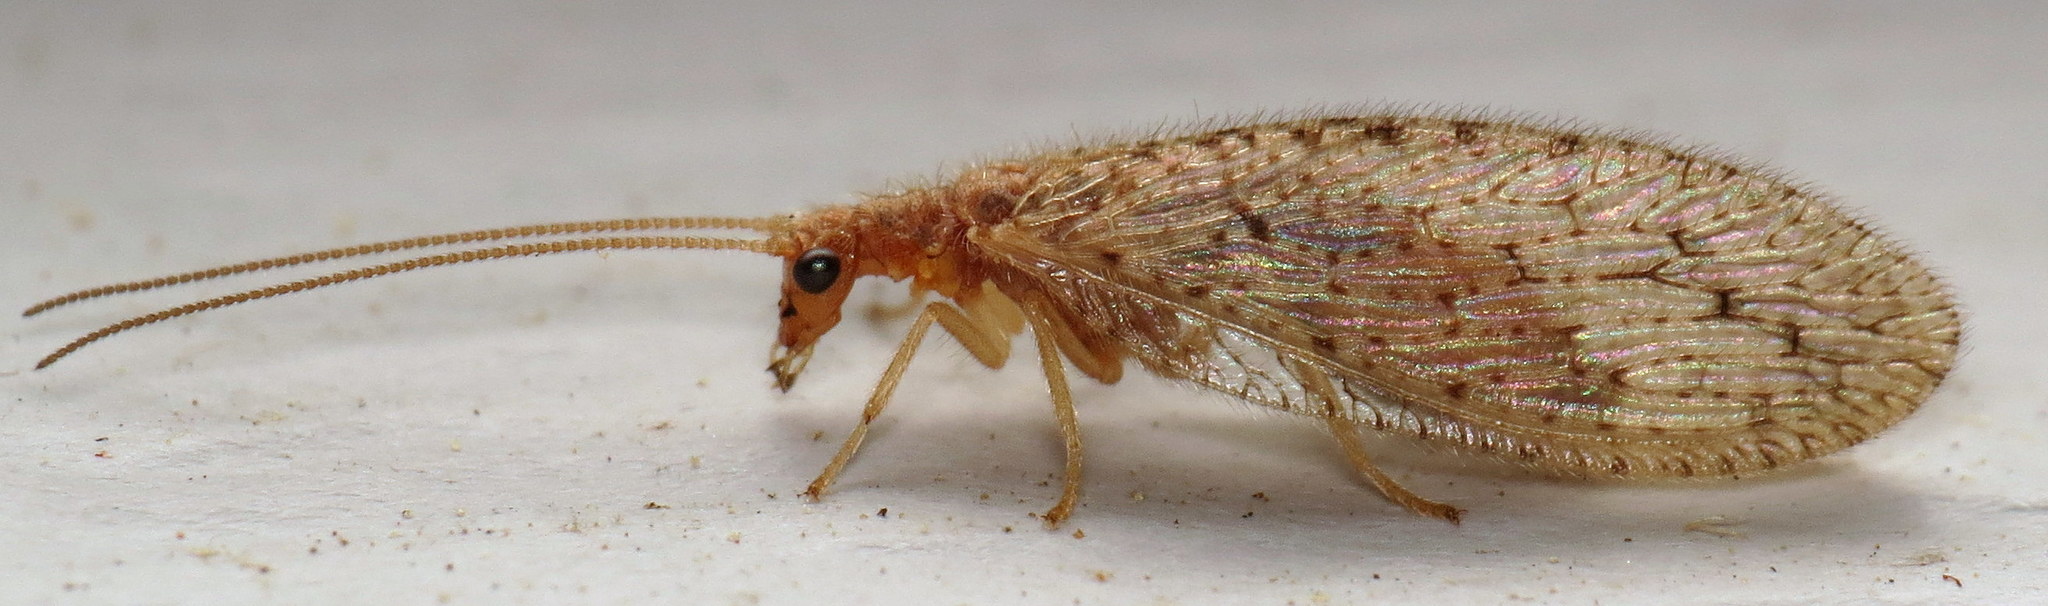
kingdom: Animalia
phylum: Arthropoda
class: Insecta
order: Neuroptera
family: Hemerobiidae
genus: Micromus
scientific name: Micromus subanticus
